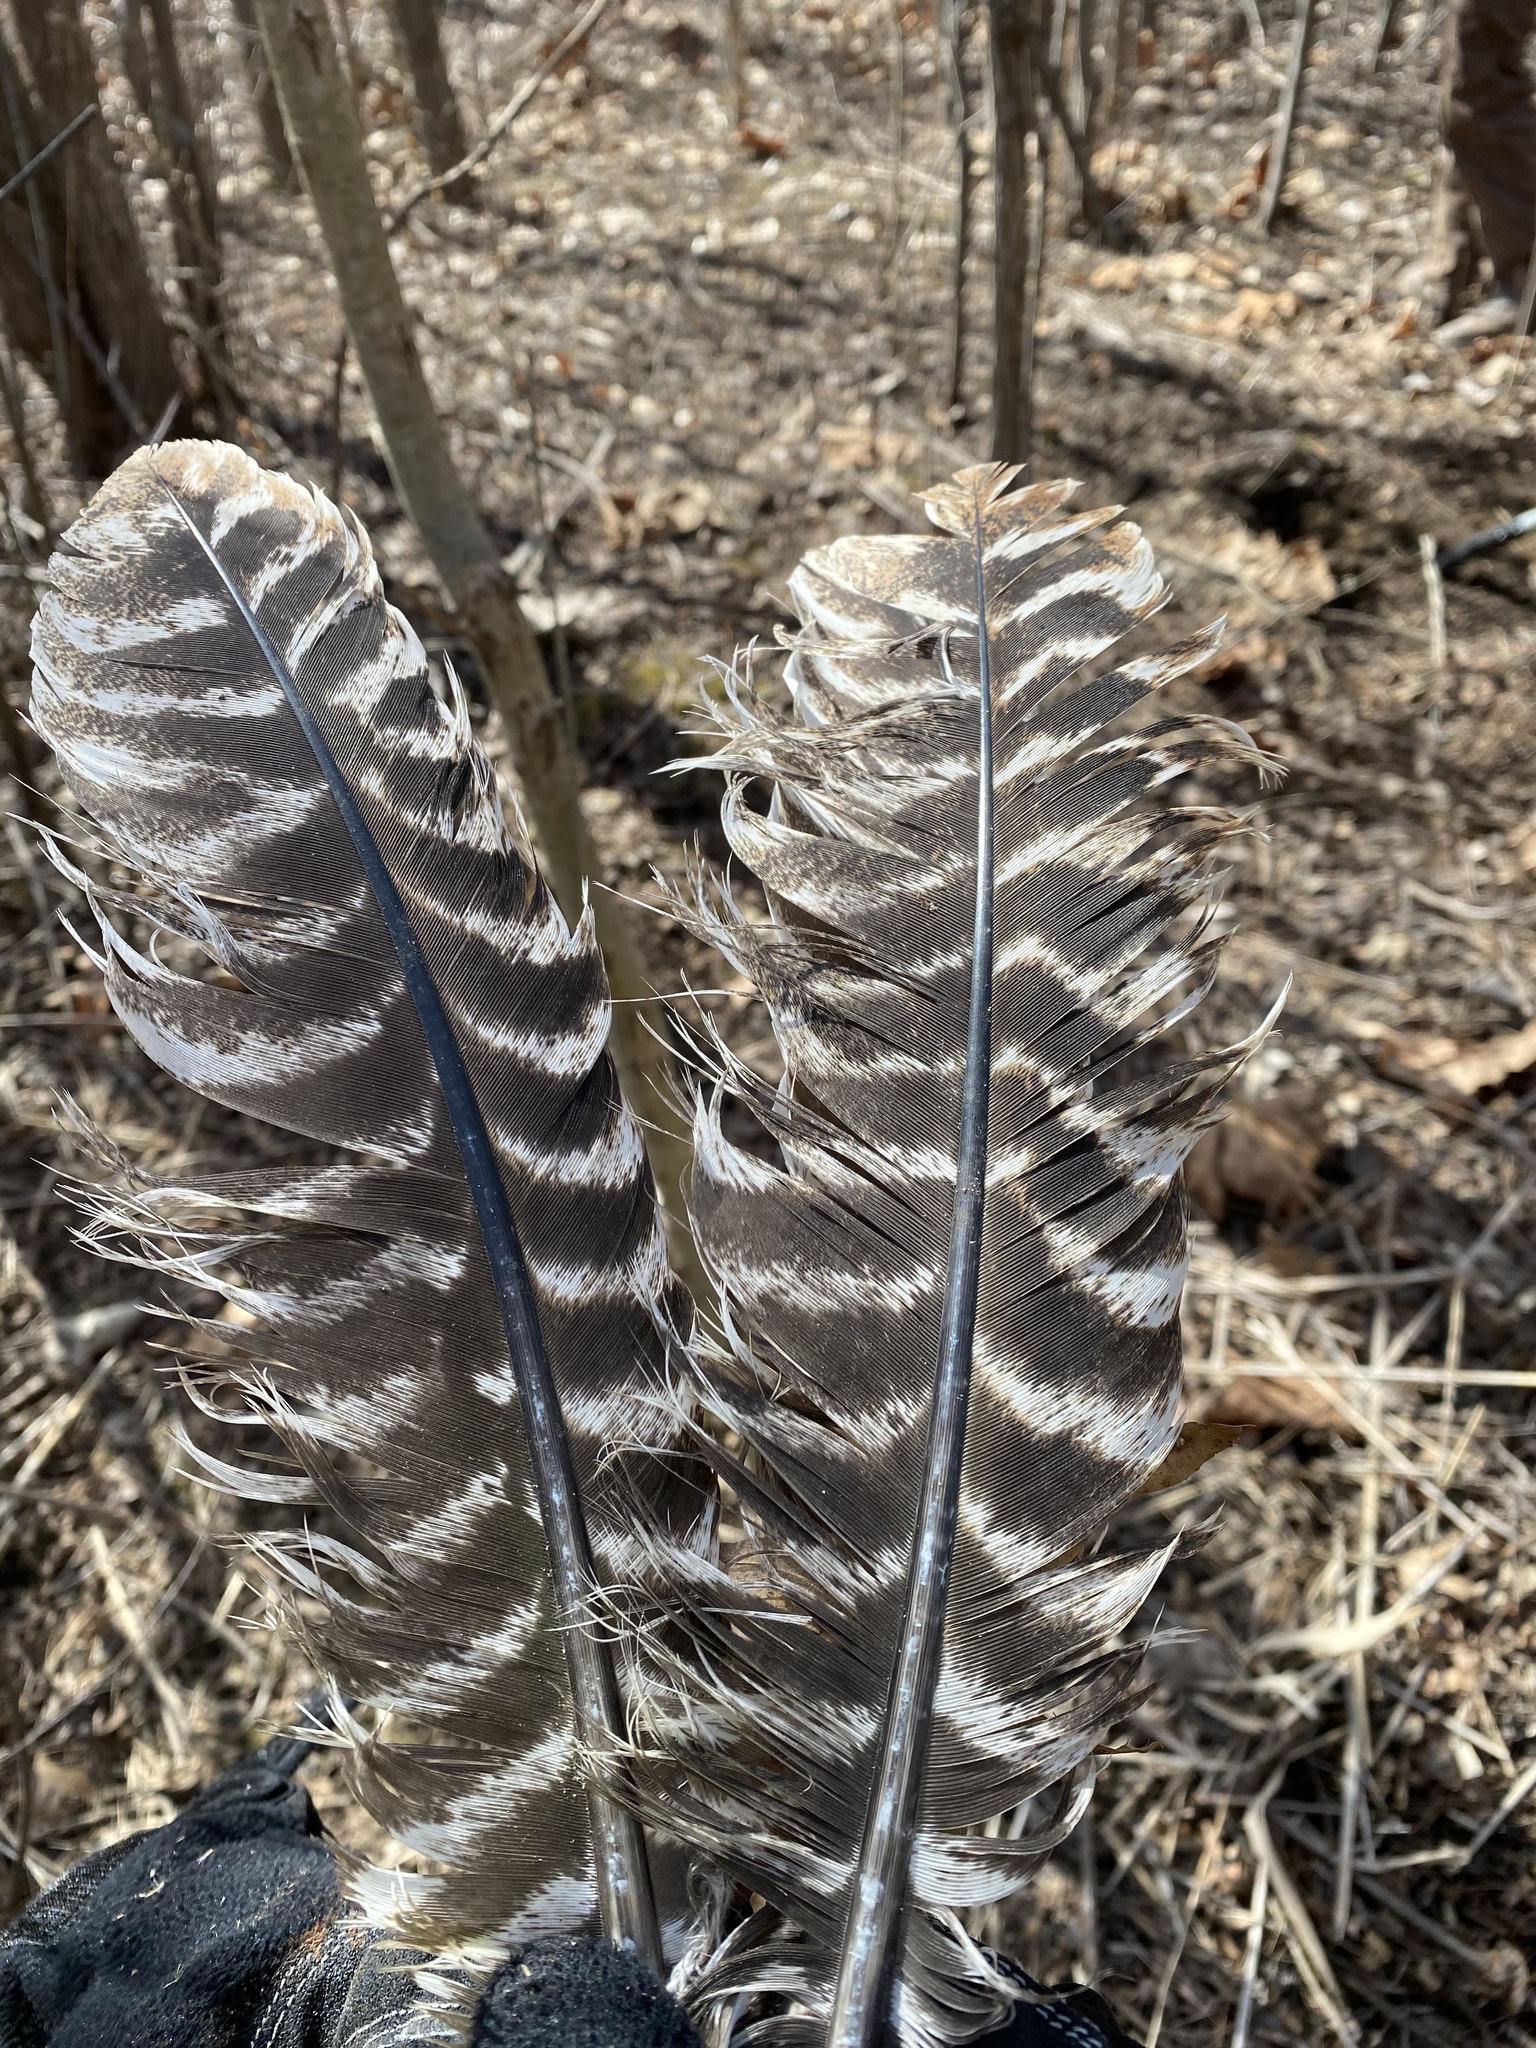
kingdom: Animalia
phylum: Chordata
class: Aves
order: Galliformes
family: Phasianidae
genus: Meleagris
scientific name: Meleagris gallopavo
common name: Wild turkey
